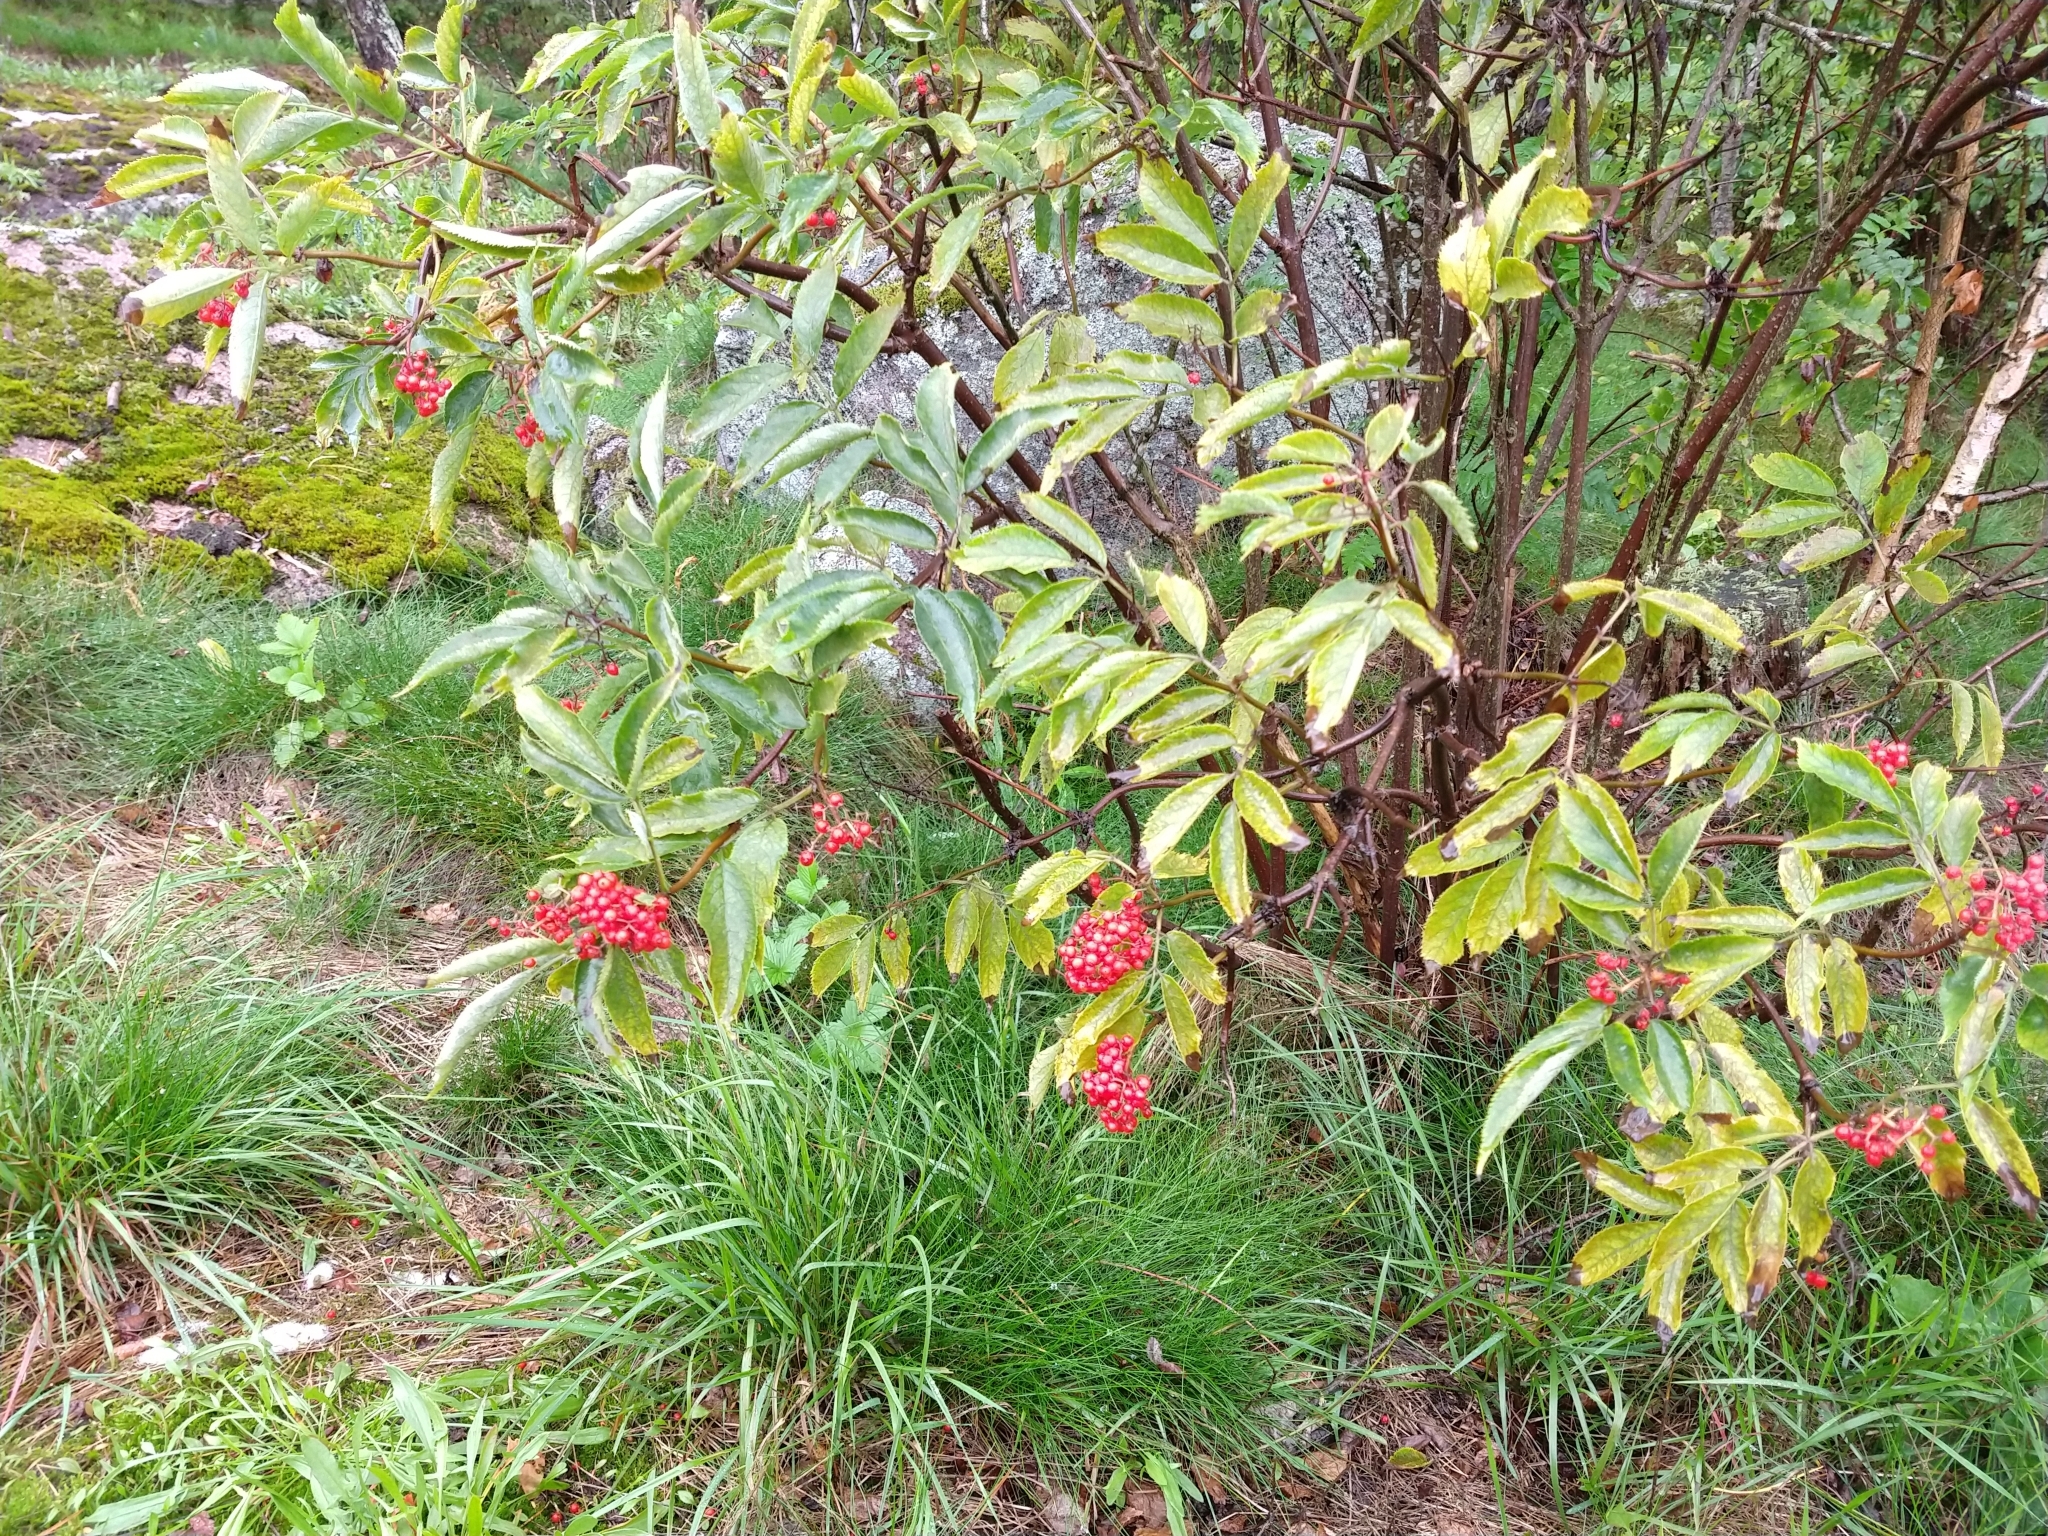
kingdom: Plantae
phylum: Tracheophyta
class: Magnoliopsida
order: Dipsacales
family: Viburnaceae
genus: Sambucus
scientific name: Sambucus racemosa
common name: Red-berried elder
